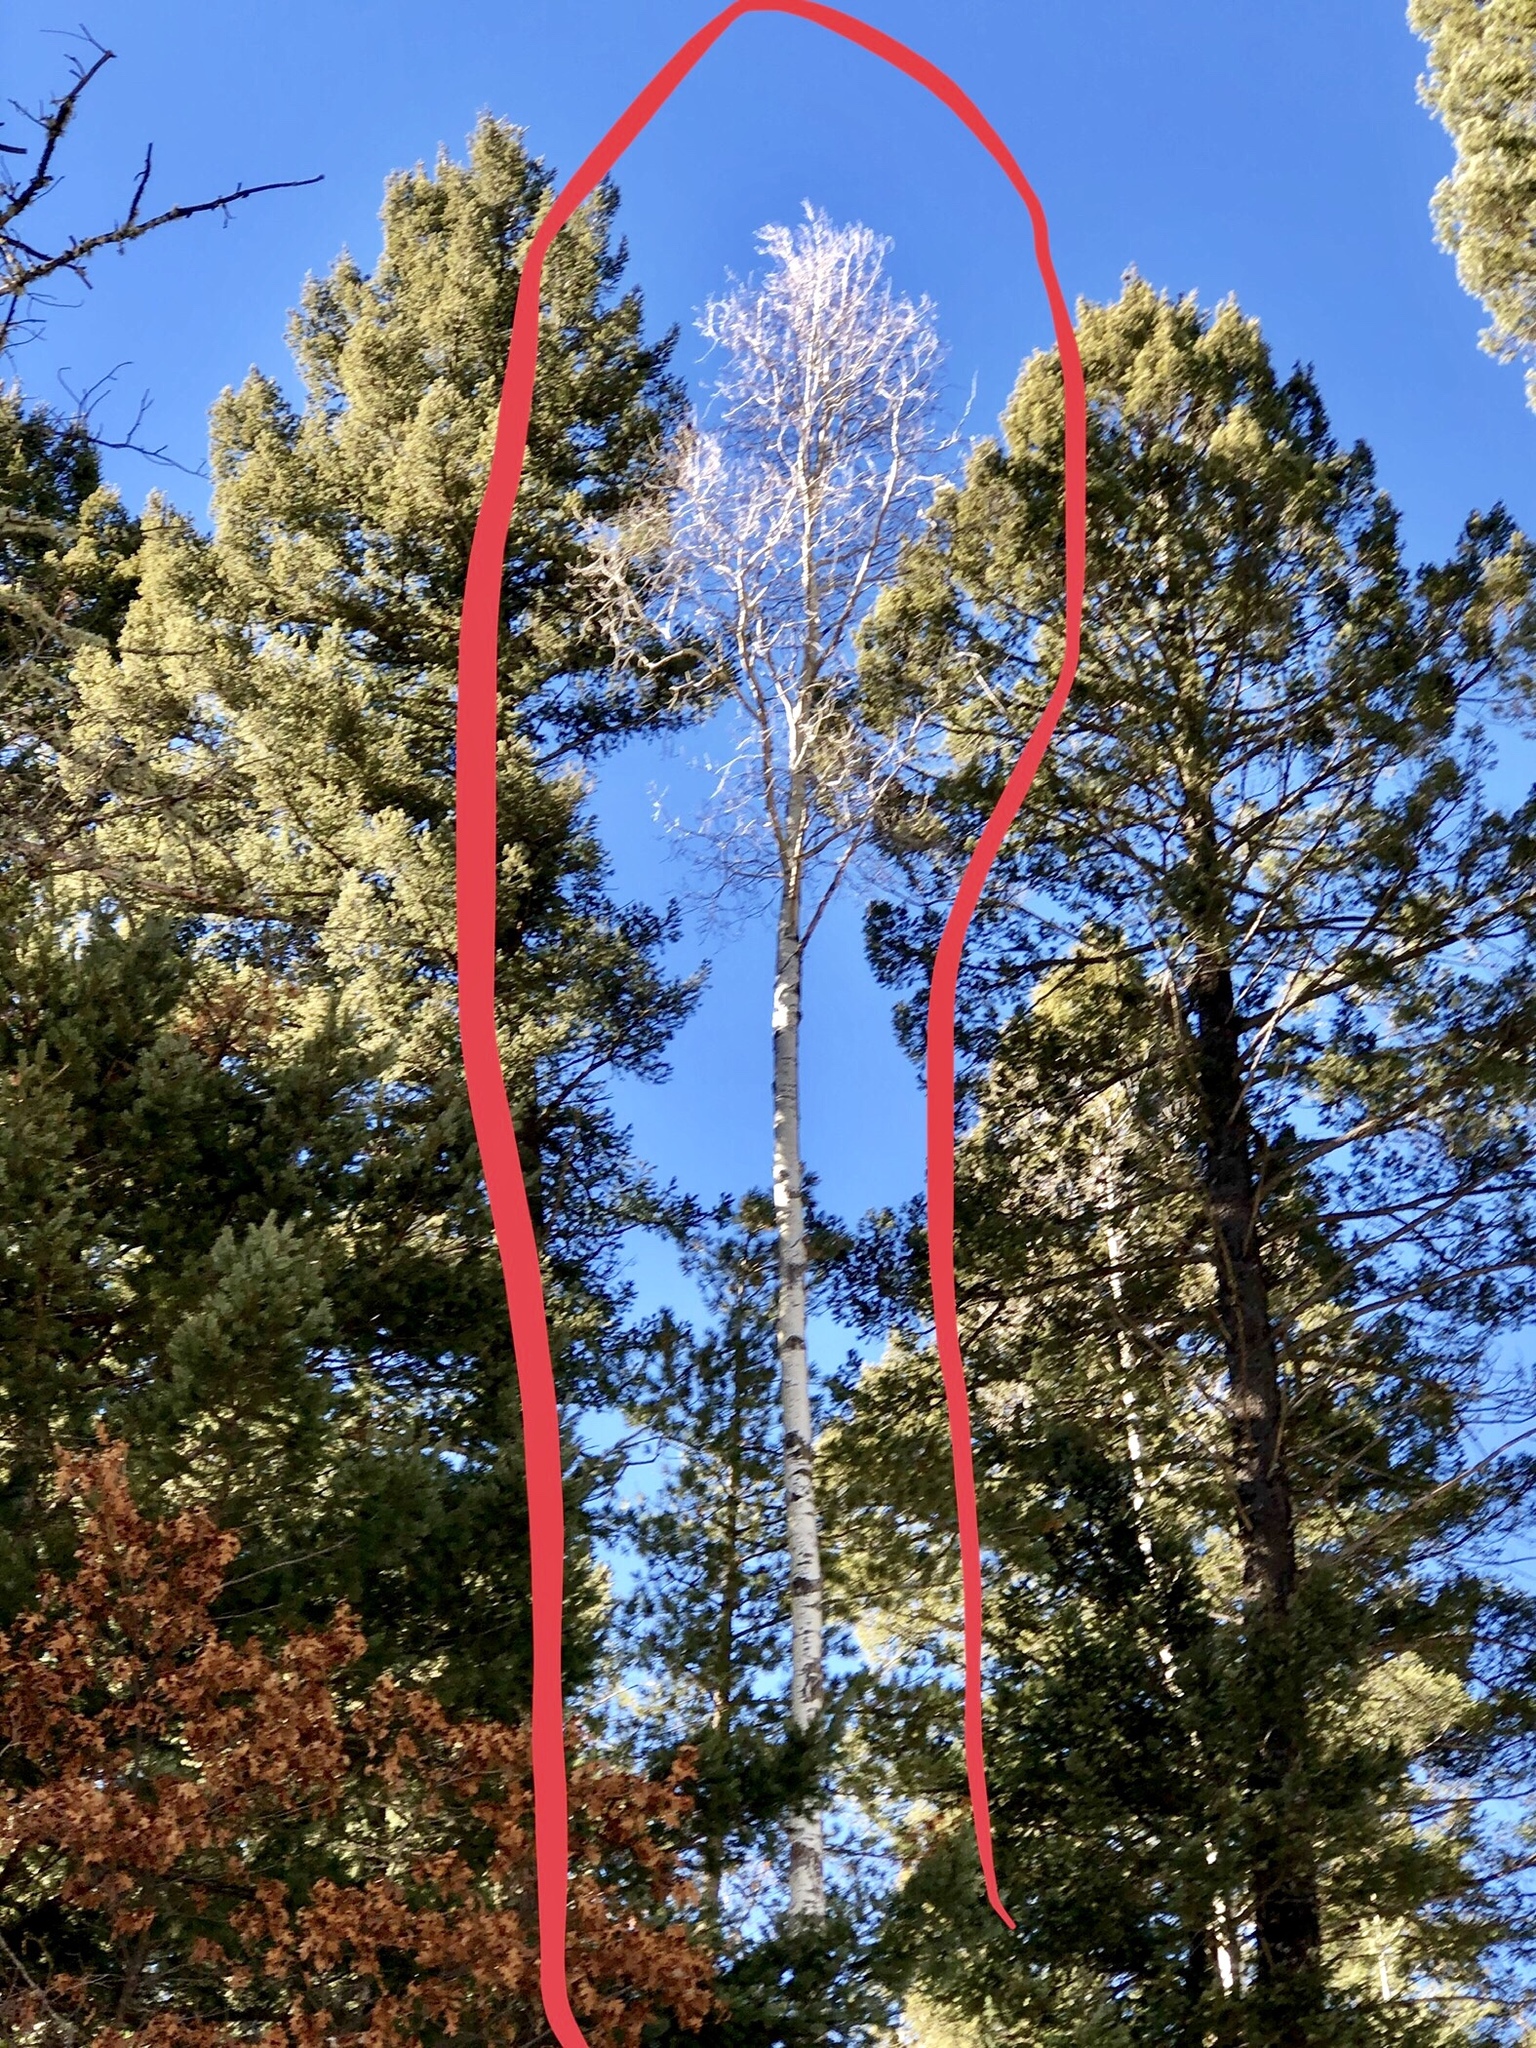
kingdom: Plantae
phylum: Tracheophyta
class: Magnoliopsida
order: Malpighiales
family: Salicaceae
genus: Populus
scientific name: Populus tremuloides
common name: Quaking aspen
